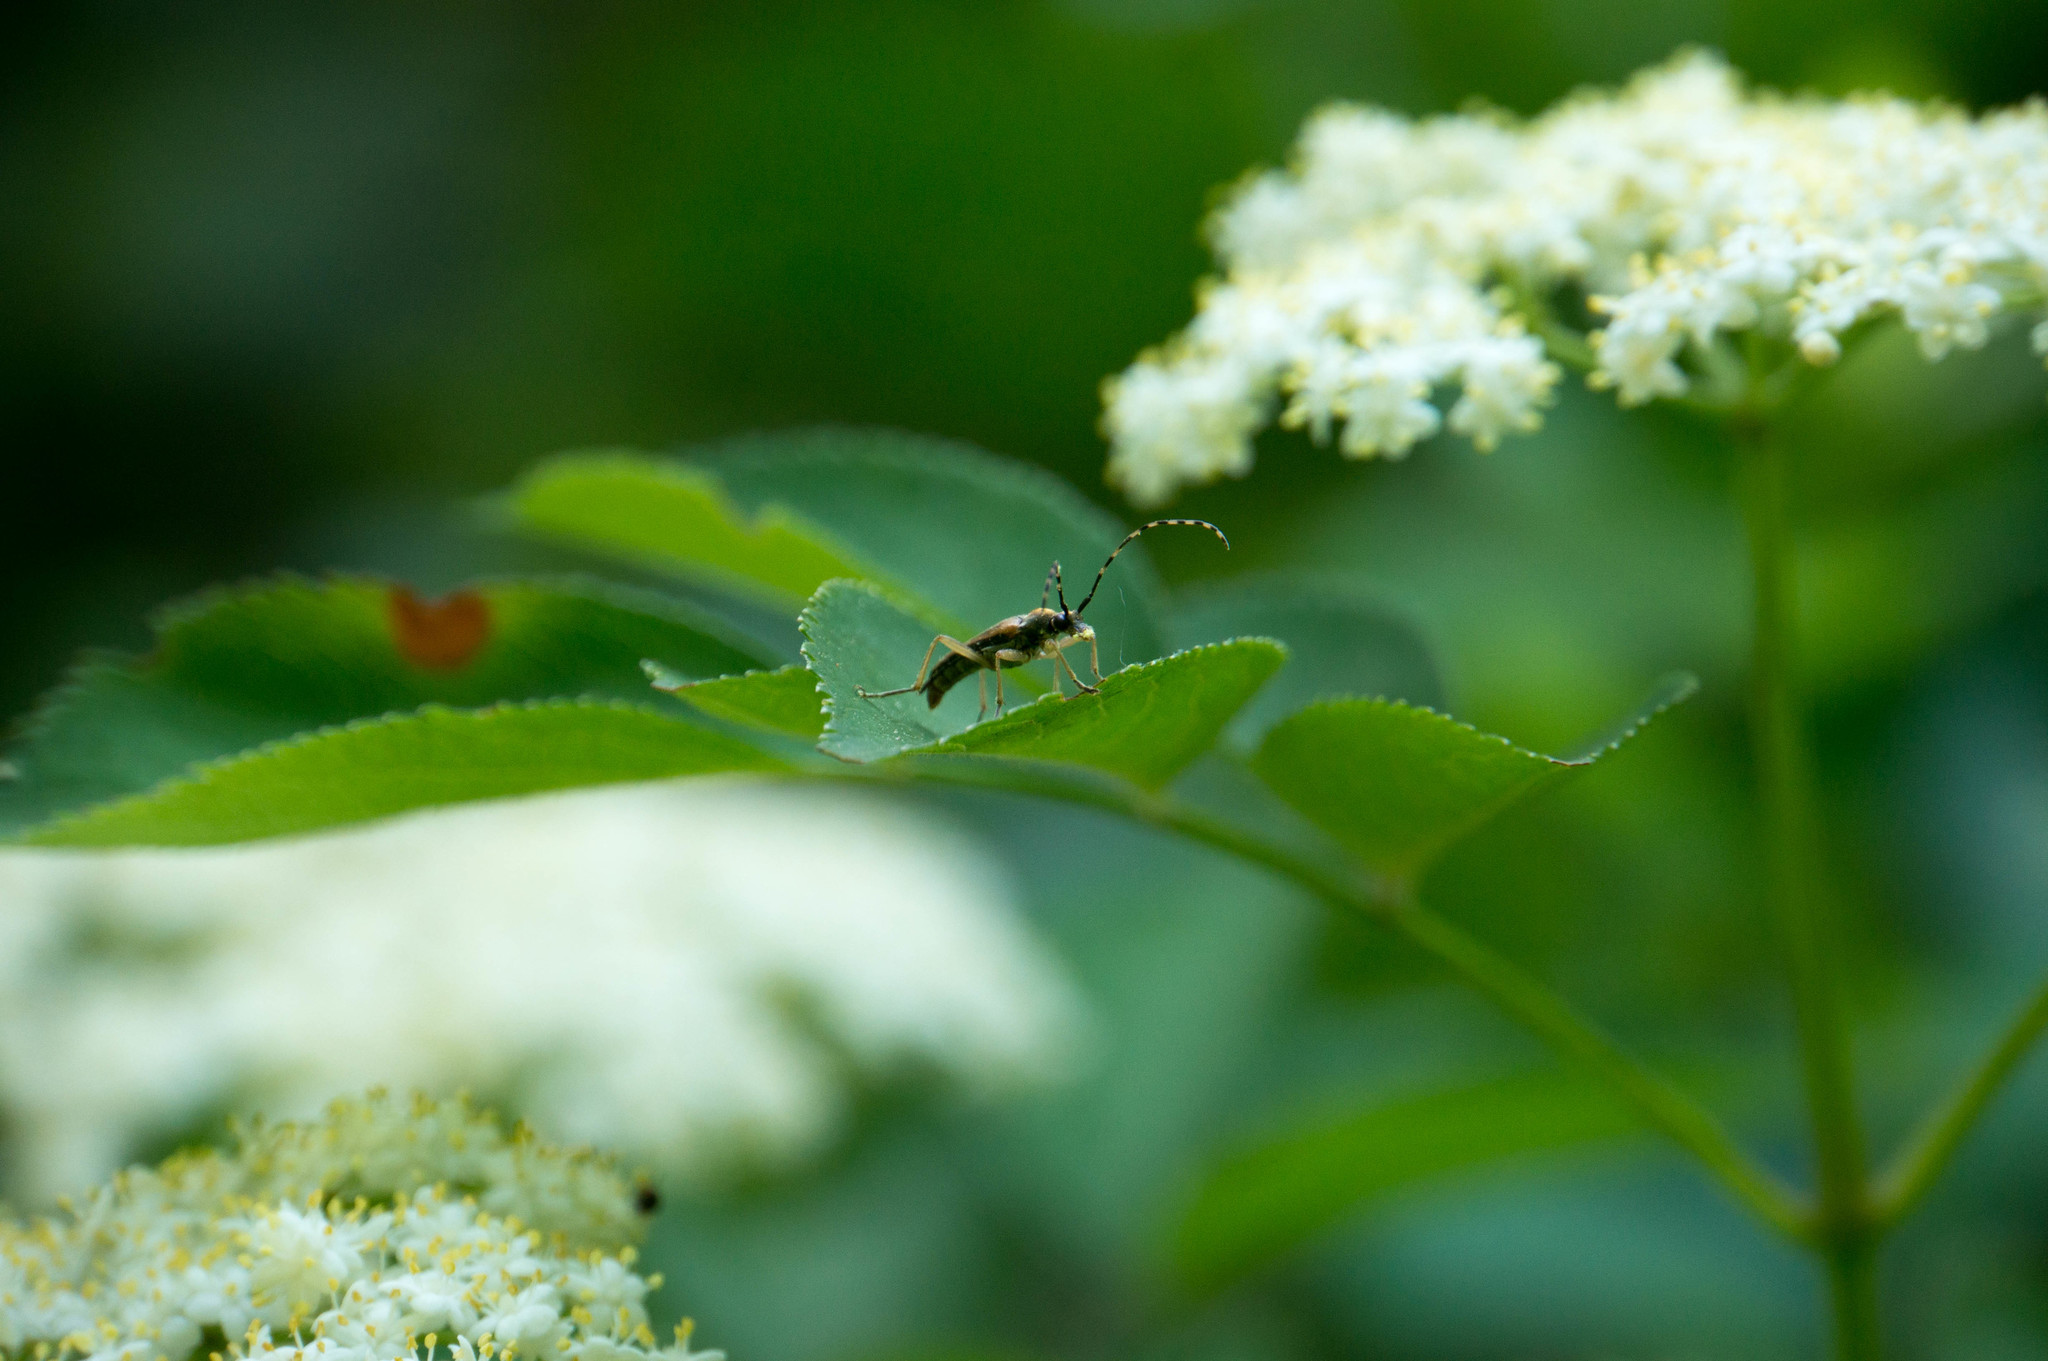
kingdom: Animalia
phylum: Arthropoda
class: Insecta
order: Coleoptera
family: Cerambycidae
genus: Analeptura
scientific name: Analeptura lineola
